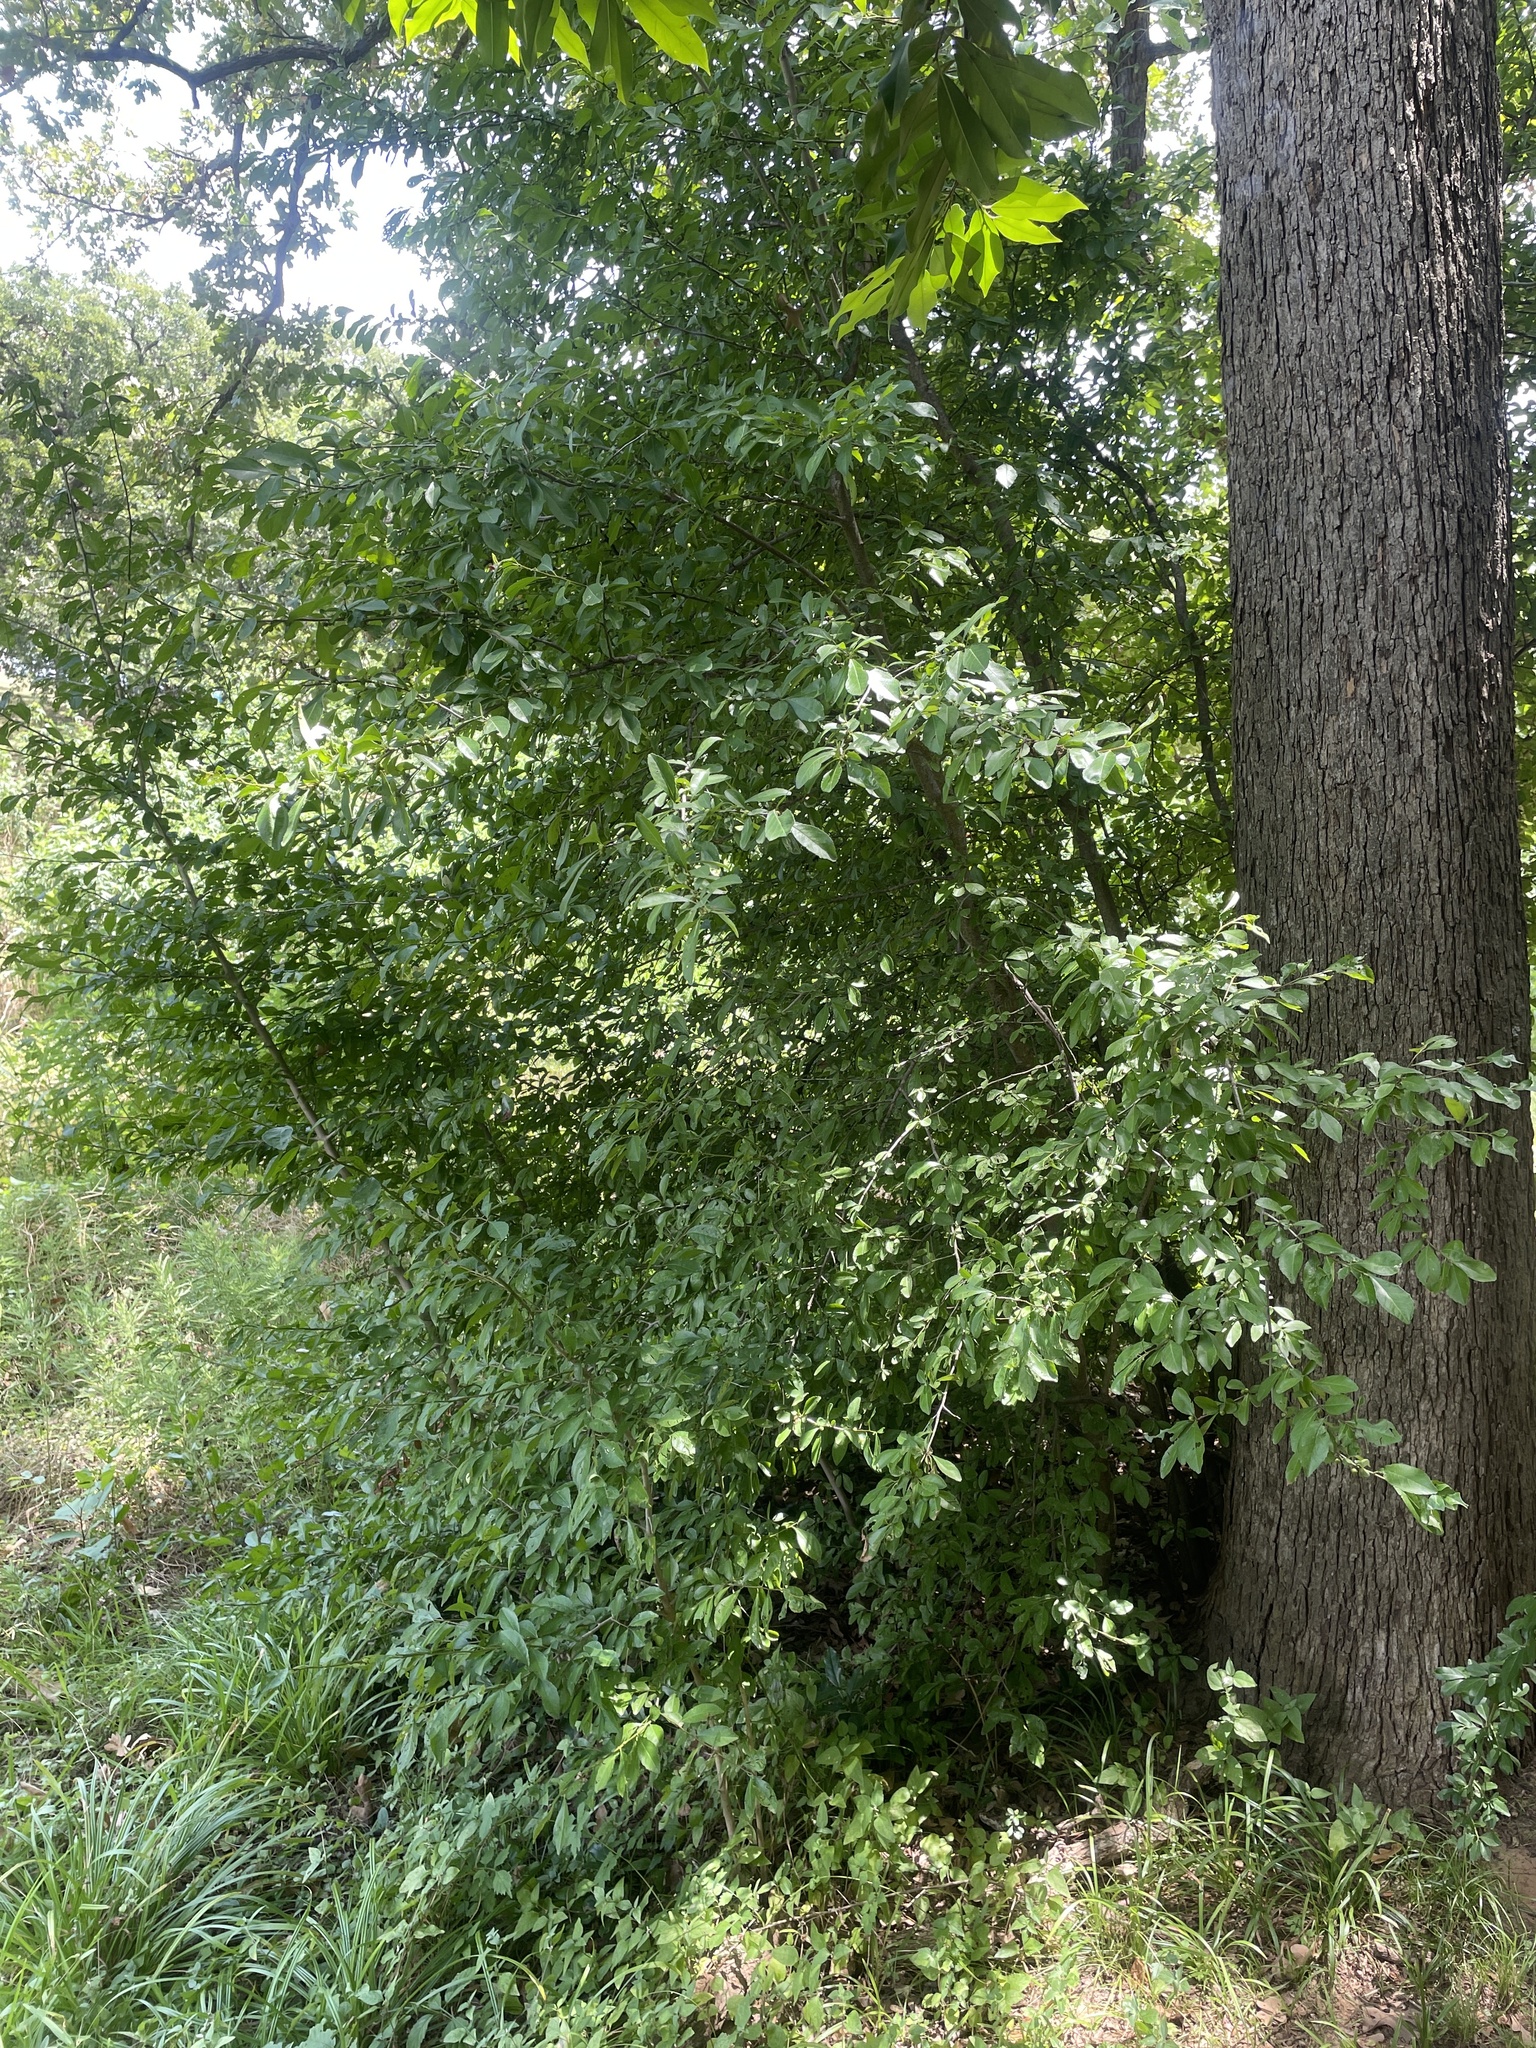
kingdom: Plantae
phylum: Tracheophyta
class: Magnoliopsida
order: Aquifoliales
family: Aquifoliaceae
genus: Ilex
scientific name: Ilex decidua
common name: Possum-haw
